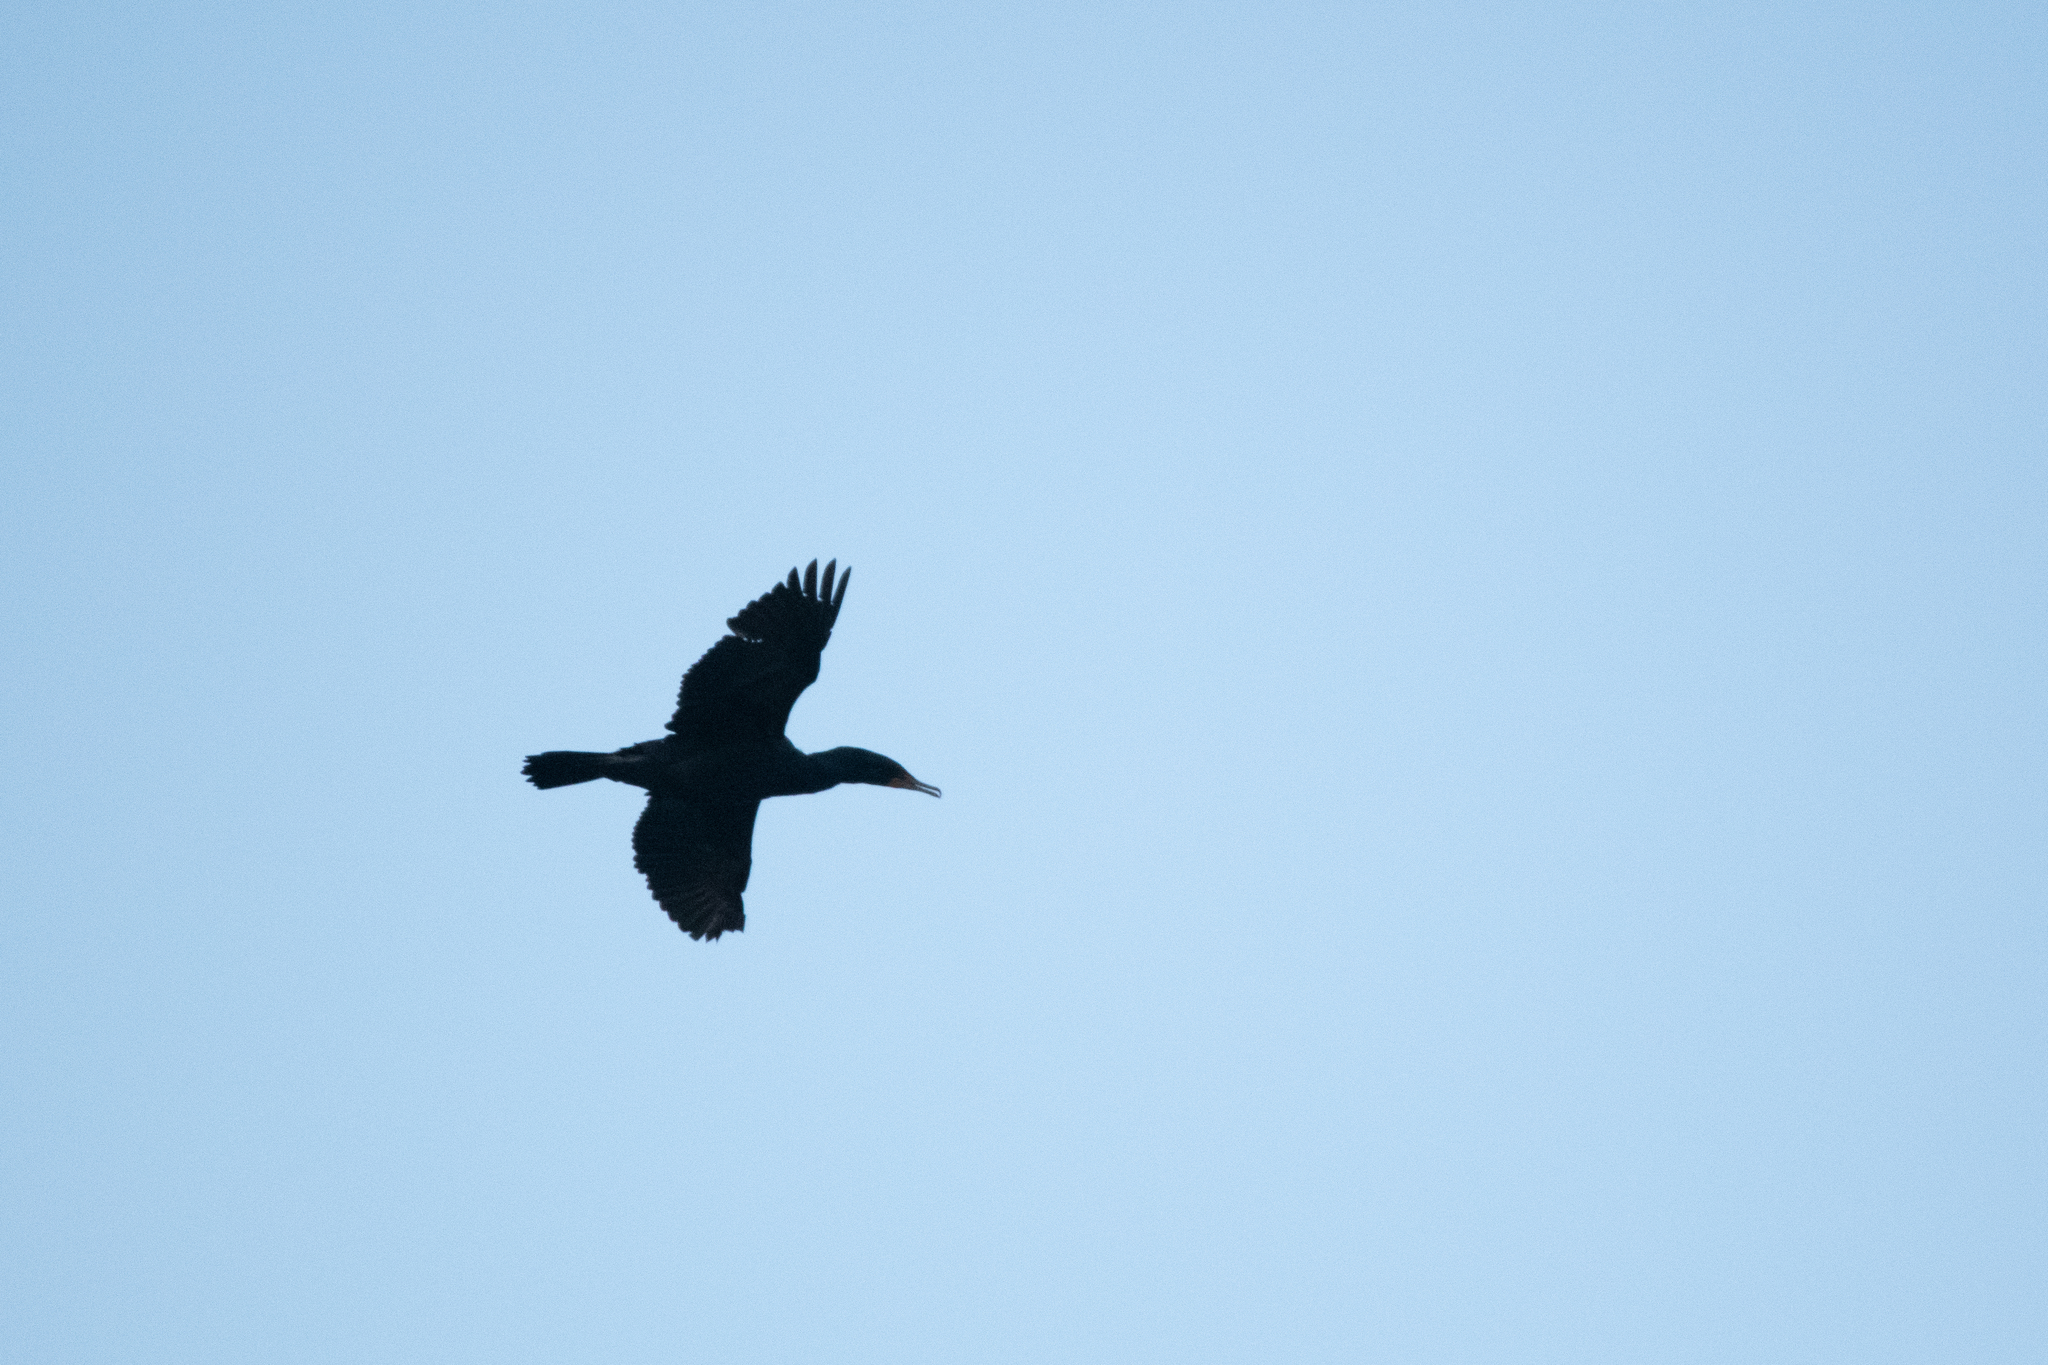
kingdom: Animalia
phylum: Chordata
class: Aves
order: Suliformes
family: Phalacrocoracidae
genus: Phalacrocorax
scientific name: Phalacrocorax auritus
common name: Double-crested cormorant
